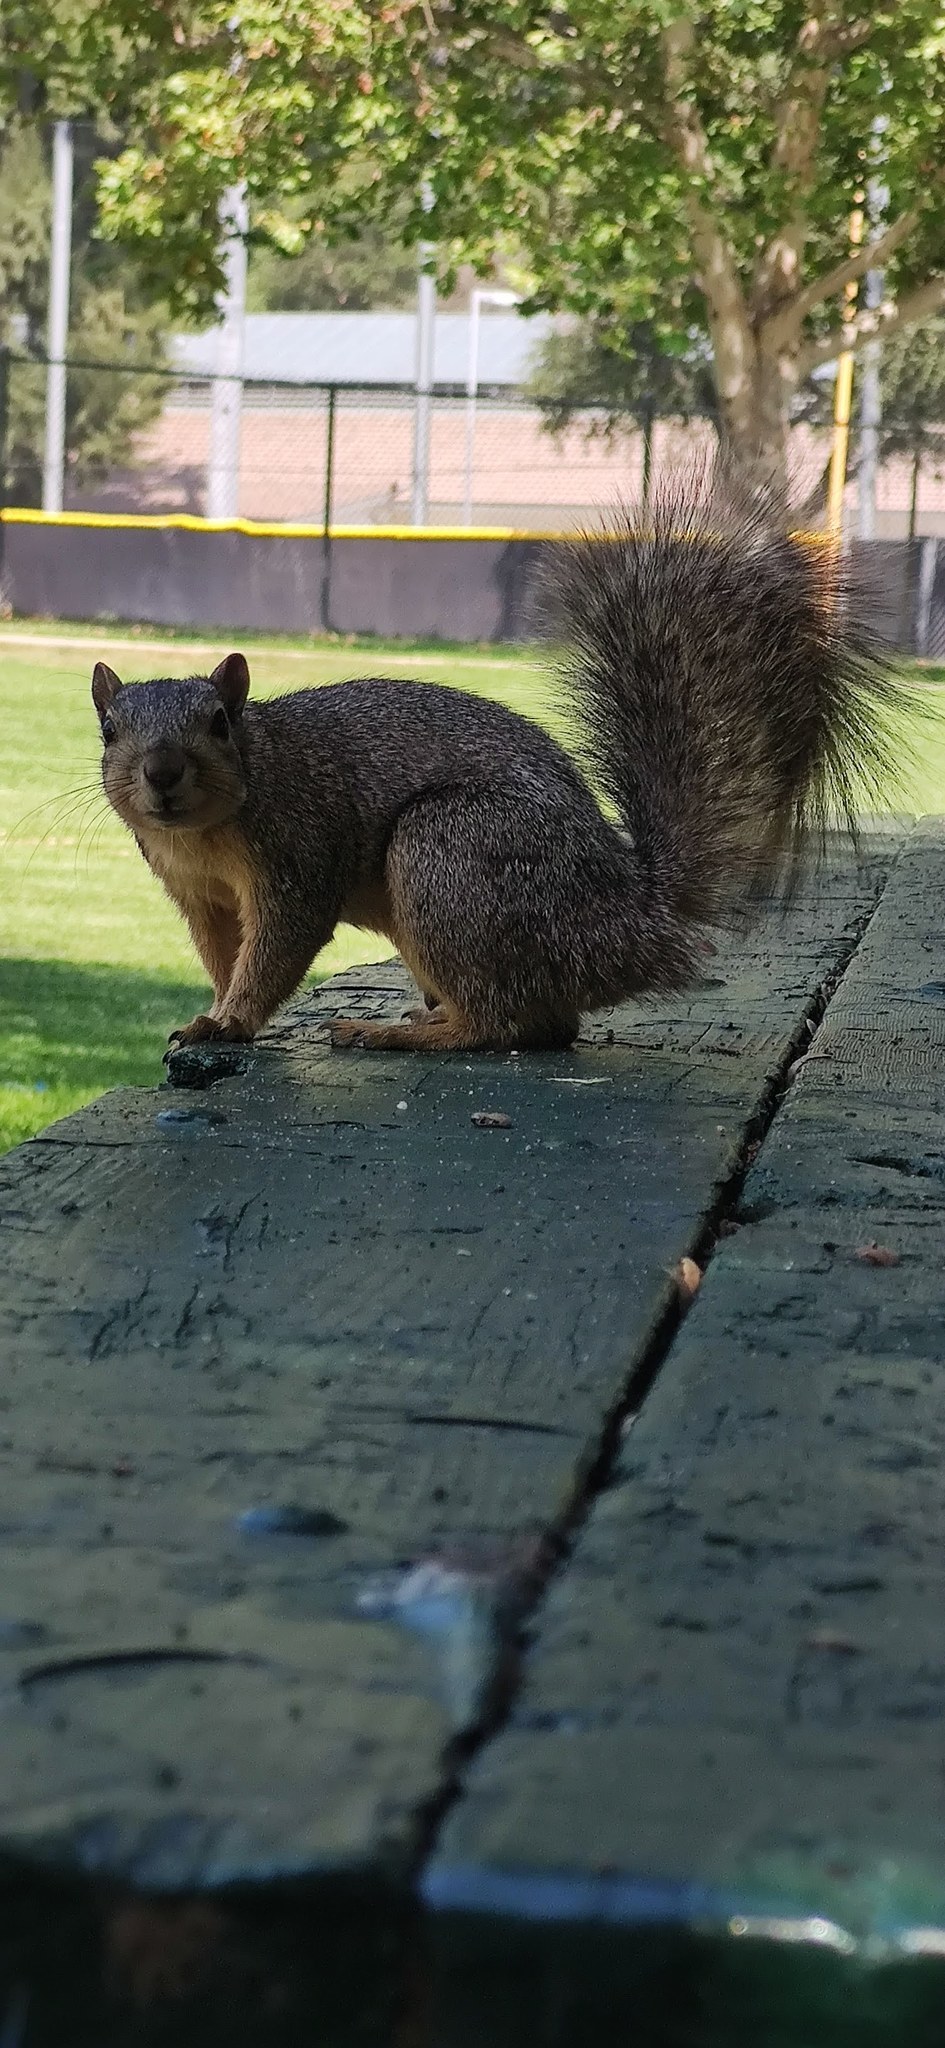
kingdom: Animalia
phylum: Chordata
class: Mammalia
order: Rodentia
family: Sciuridae
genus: Sciurus
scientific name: Sciurus niger
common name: Fox squirrel
